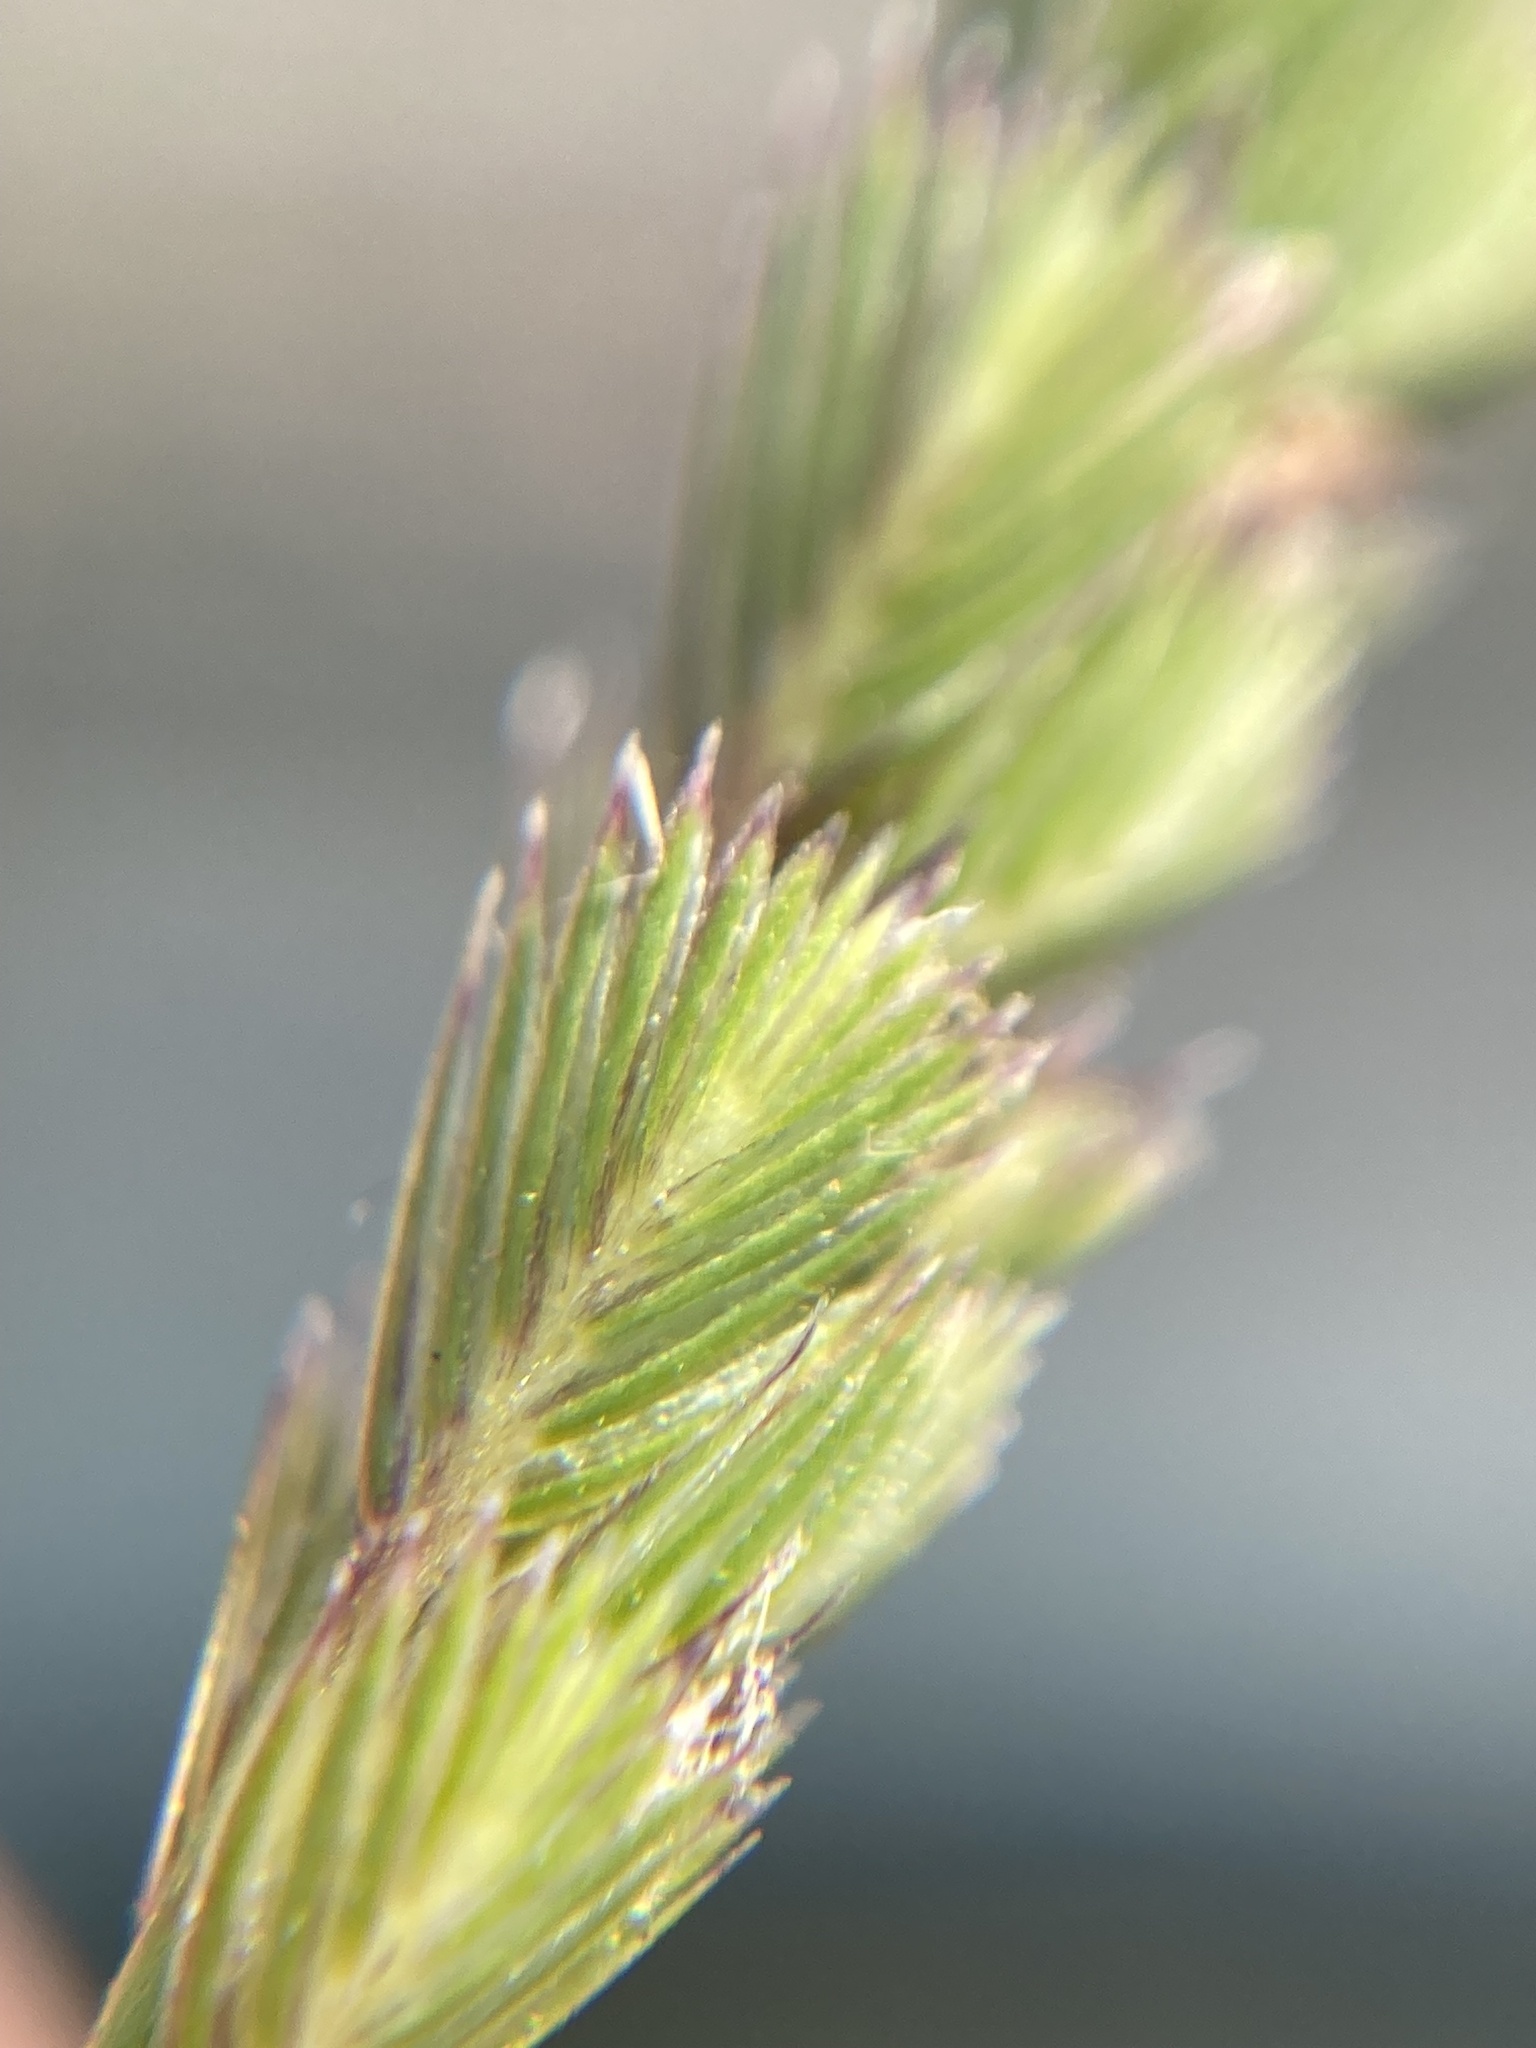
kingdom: Plantae
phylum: Tracheophyta
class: Liliopsida
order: Poales
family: Poaceae
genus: Cynosurus
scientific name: Cynosurus cristatus
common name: Crested dog's-tail
